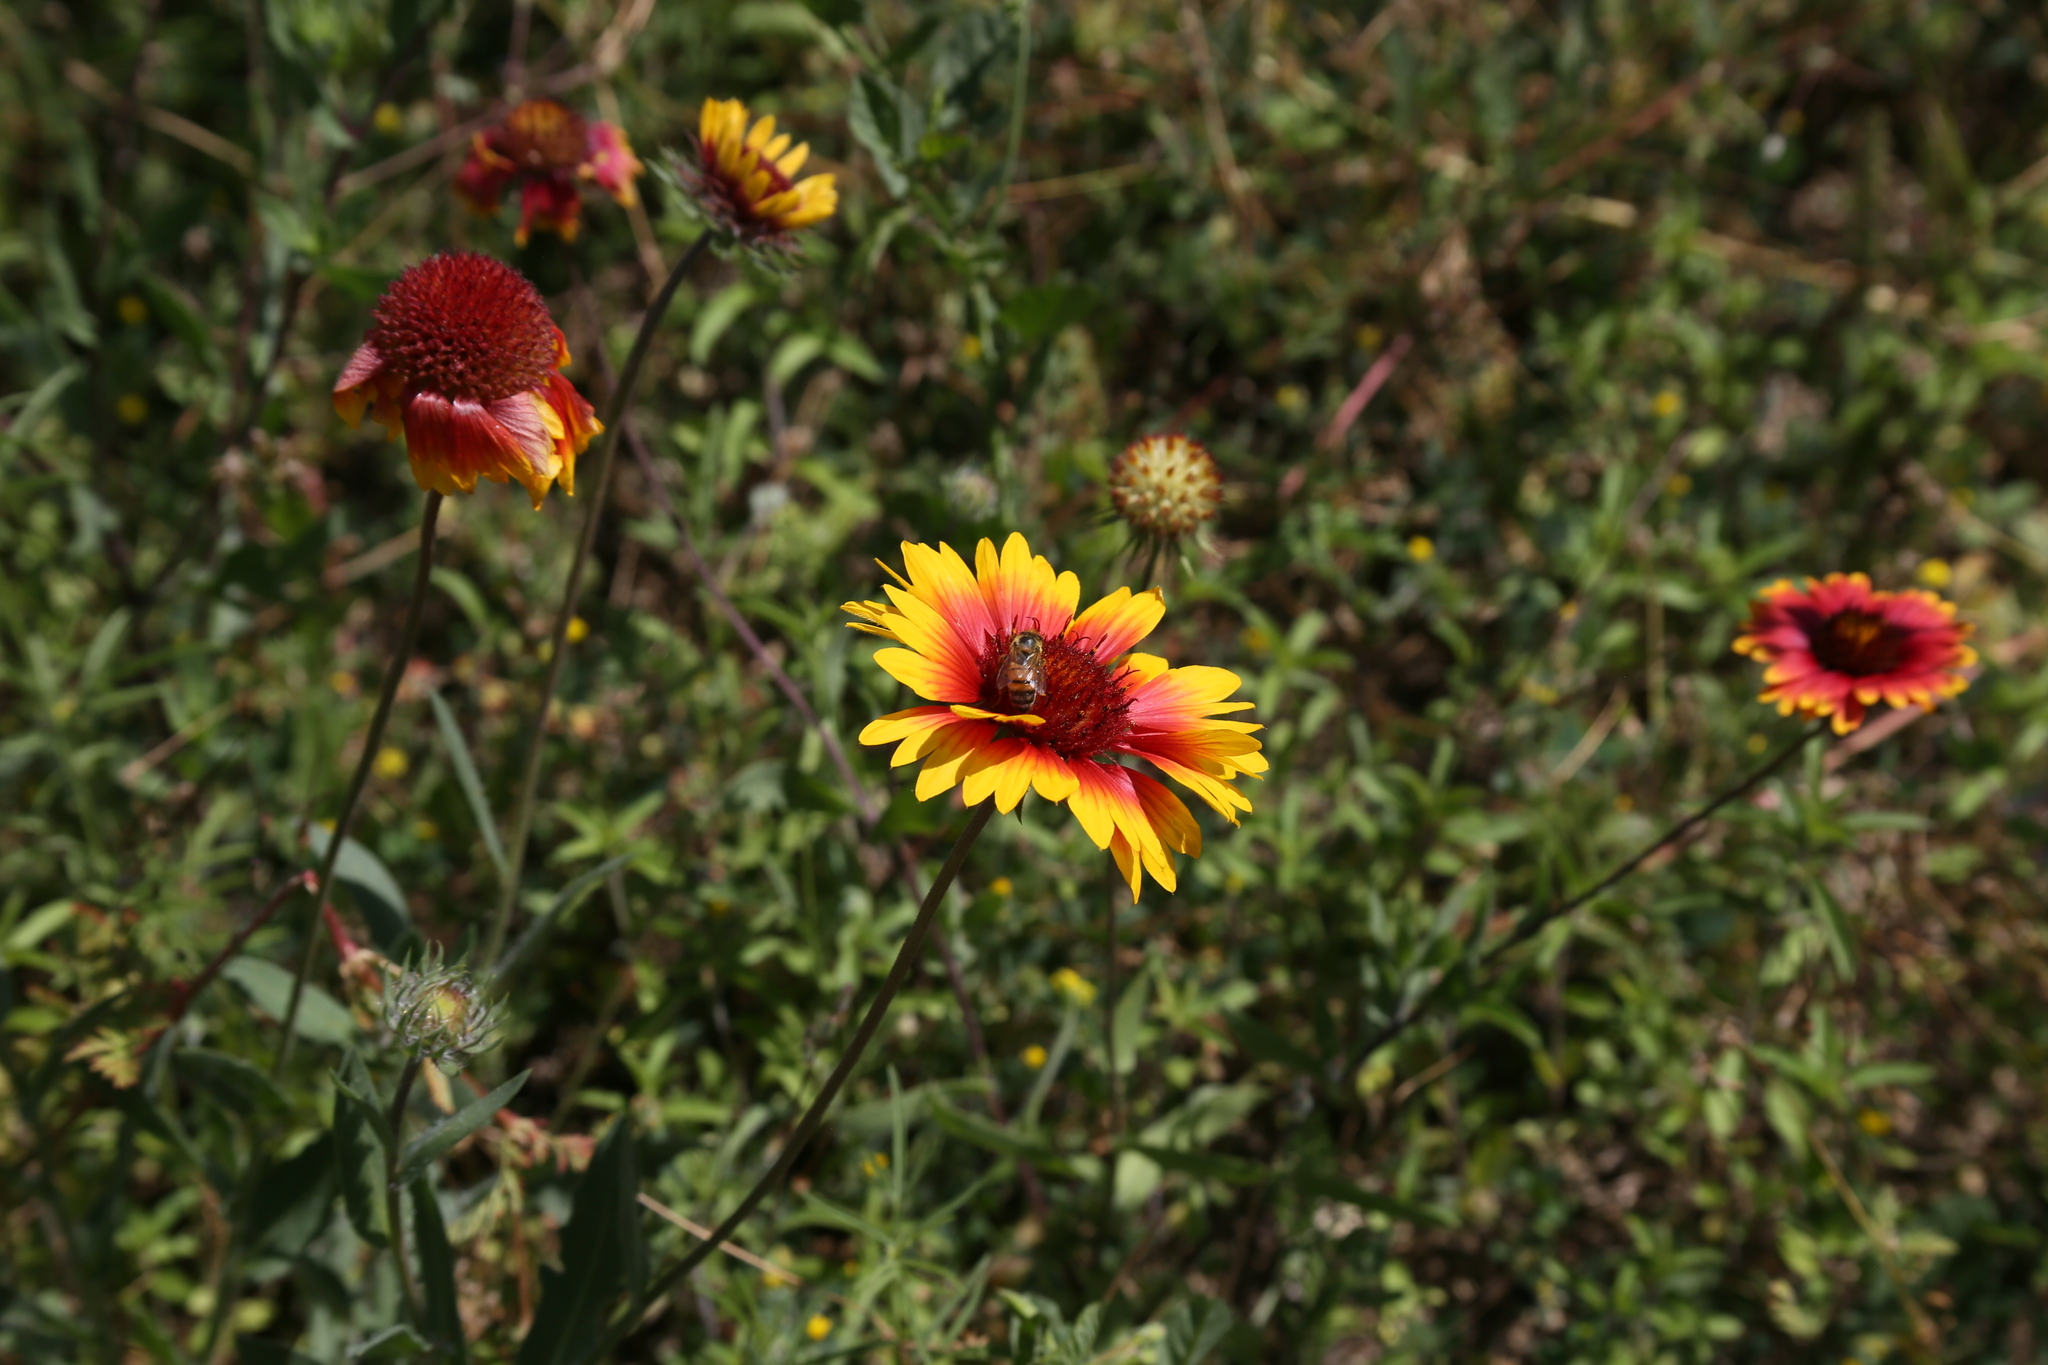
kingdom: Plantae
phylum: Tracheophyta
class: Magnoliopsida
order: Asterales
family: Asteraceae
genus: Gaillardia
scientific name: Gaillardia pulchella
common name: Firewheel
